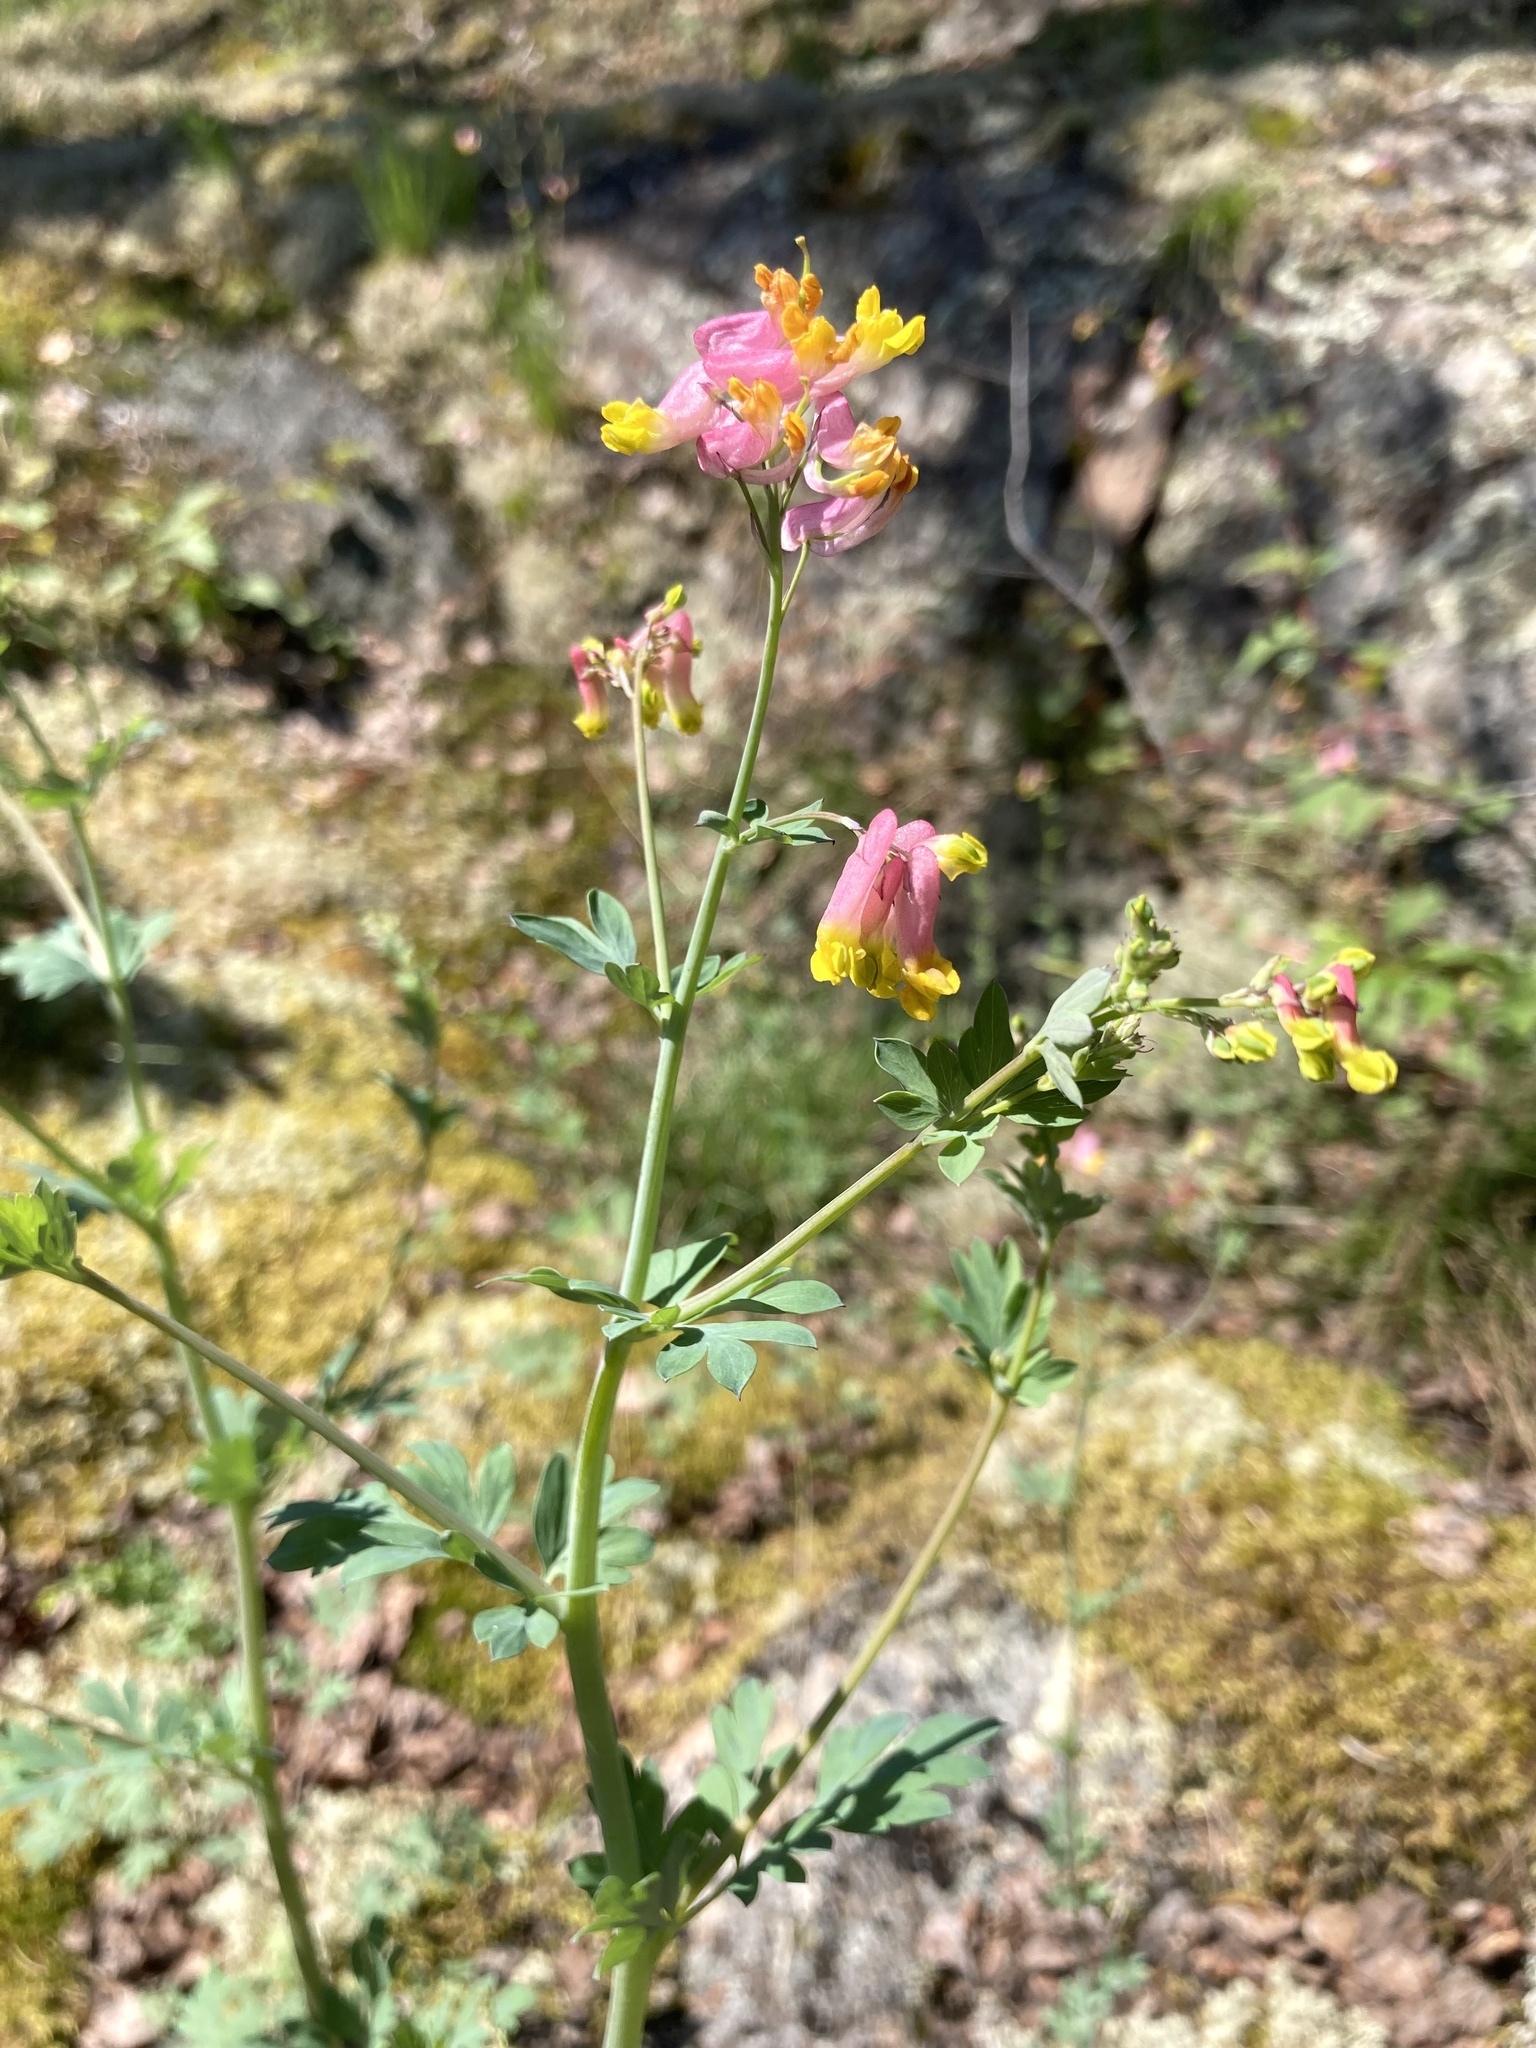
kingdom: Plantae
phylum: Tracheophyta
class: Magnoliopsida
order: Ranunculales
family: Papaveraceae
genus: Capnoides
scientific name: Capnoides sempervirens
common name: Rock harlequin
